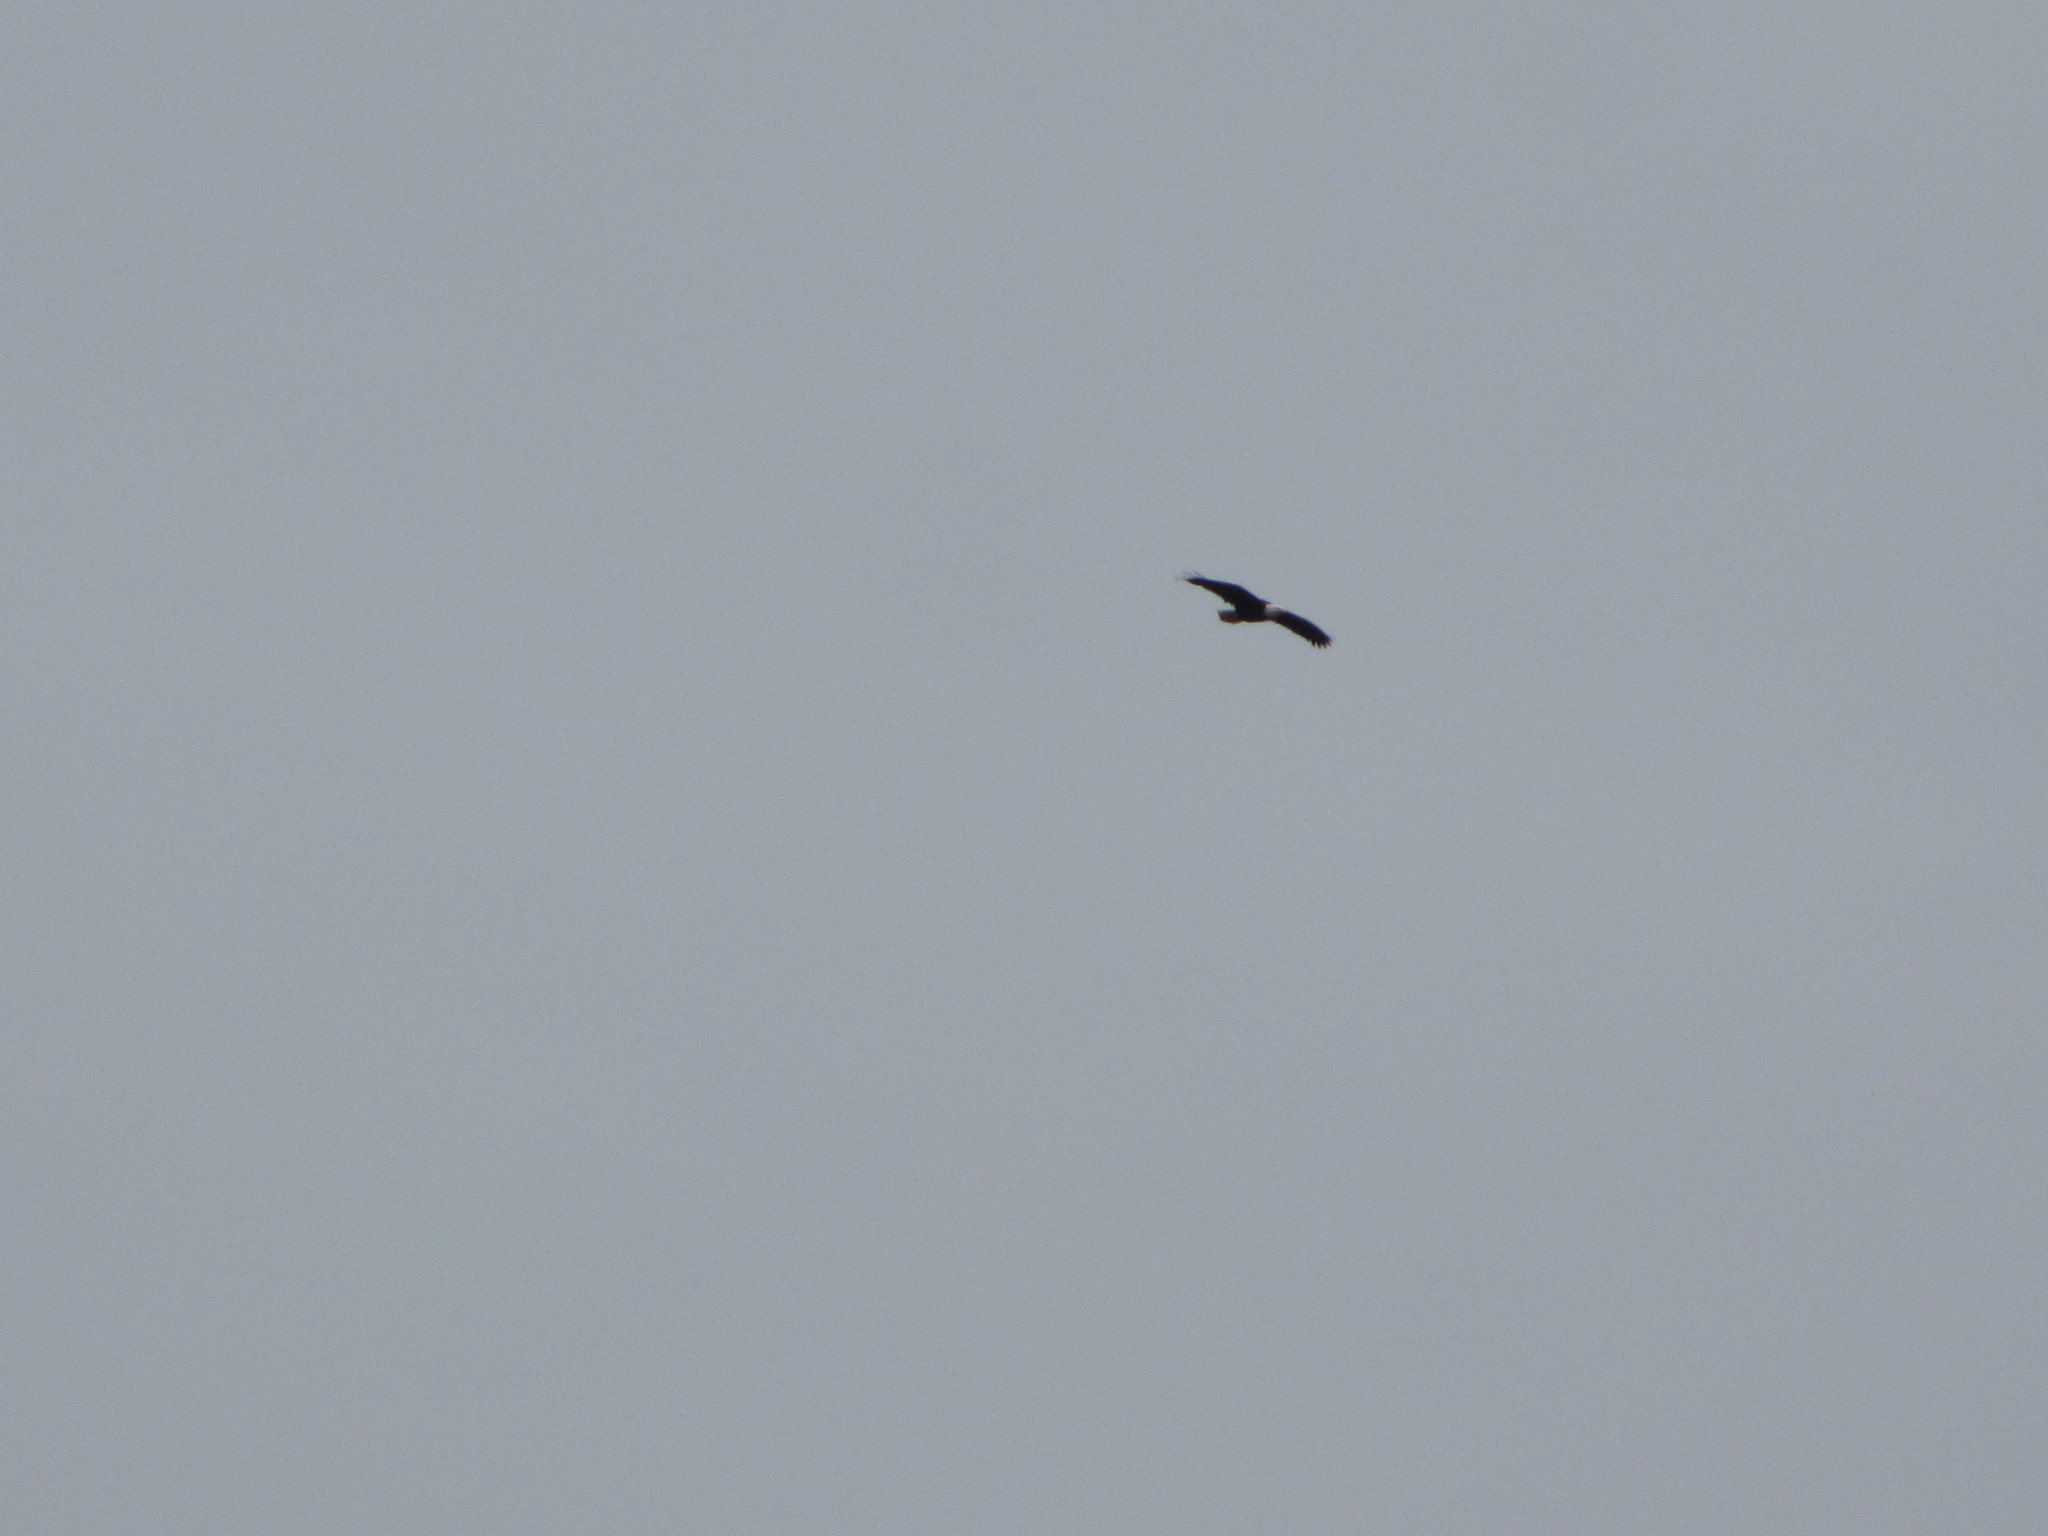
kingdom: Animalia
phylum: Chordata
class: Aves
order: Accipitriformes
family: Accipitridae
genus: Haliaeetus
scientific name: Haliaeetus leucocephalus
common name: Bald eagle
